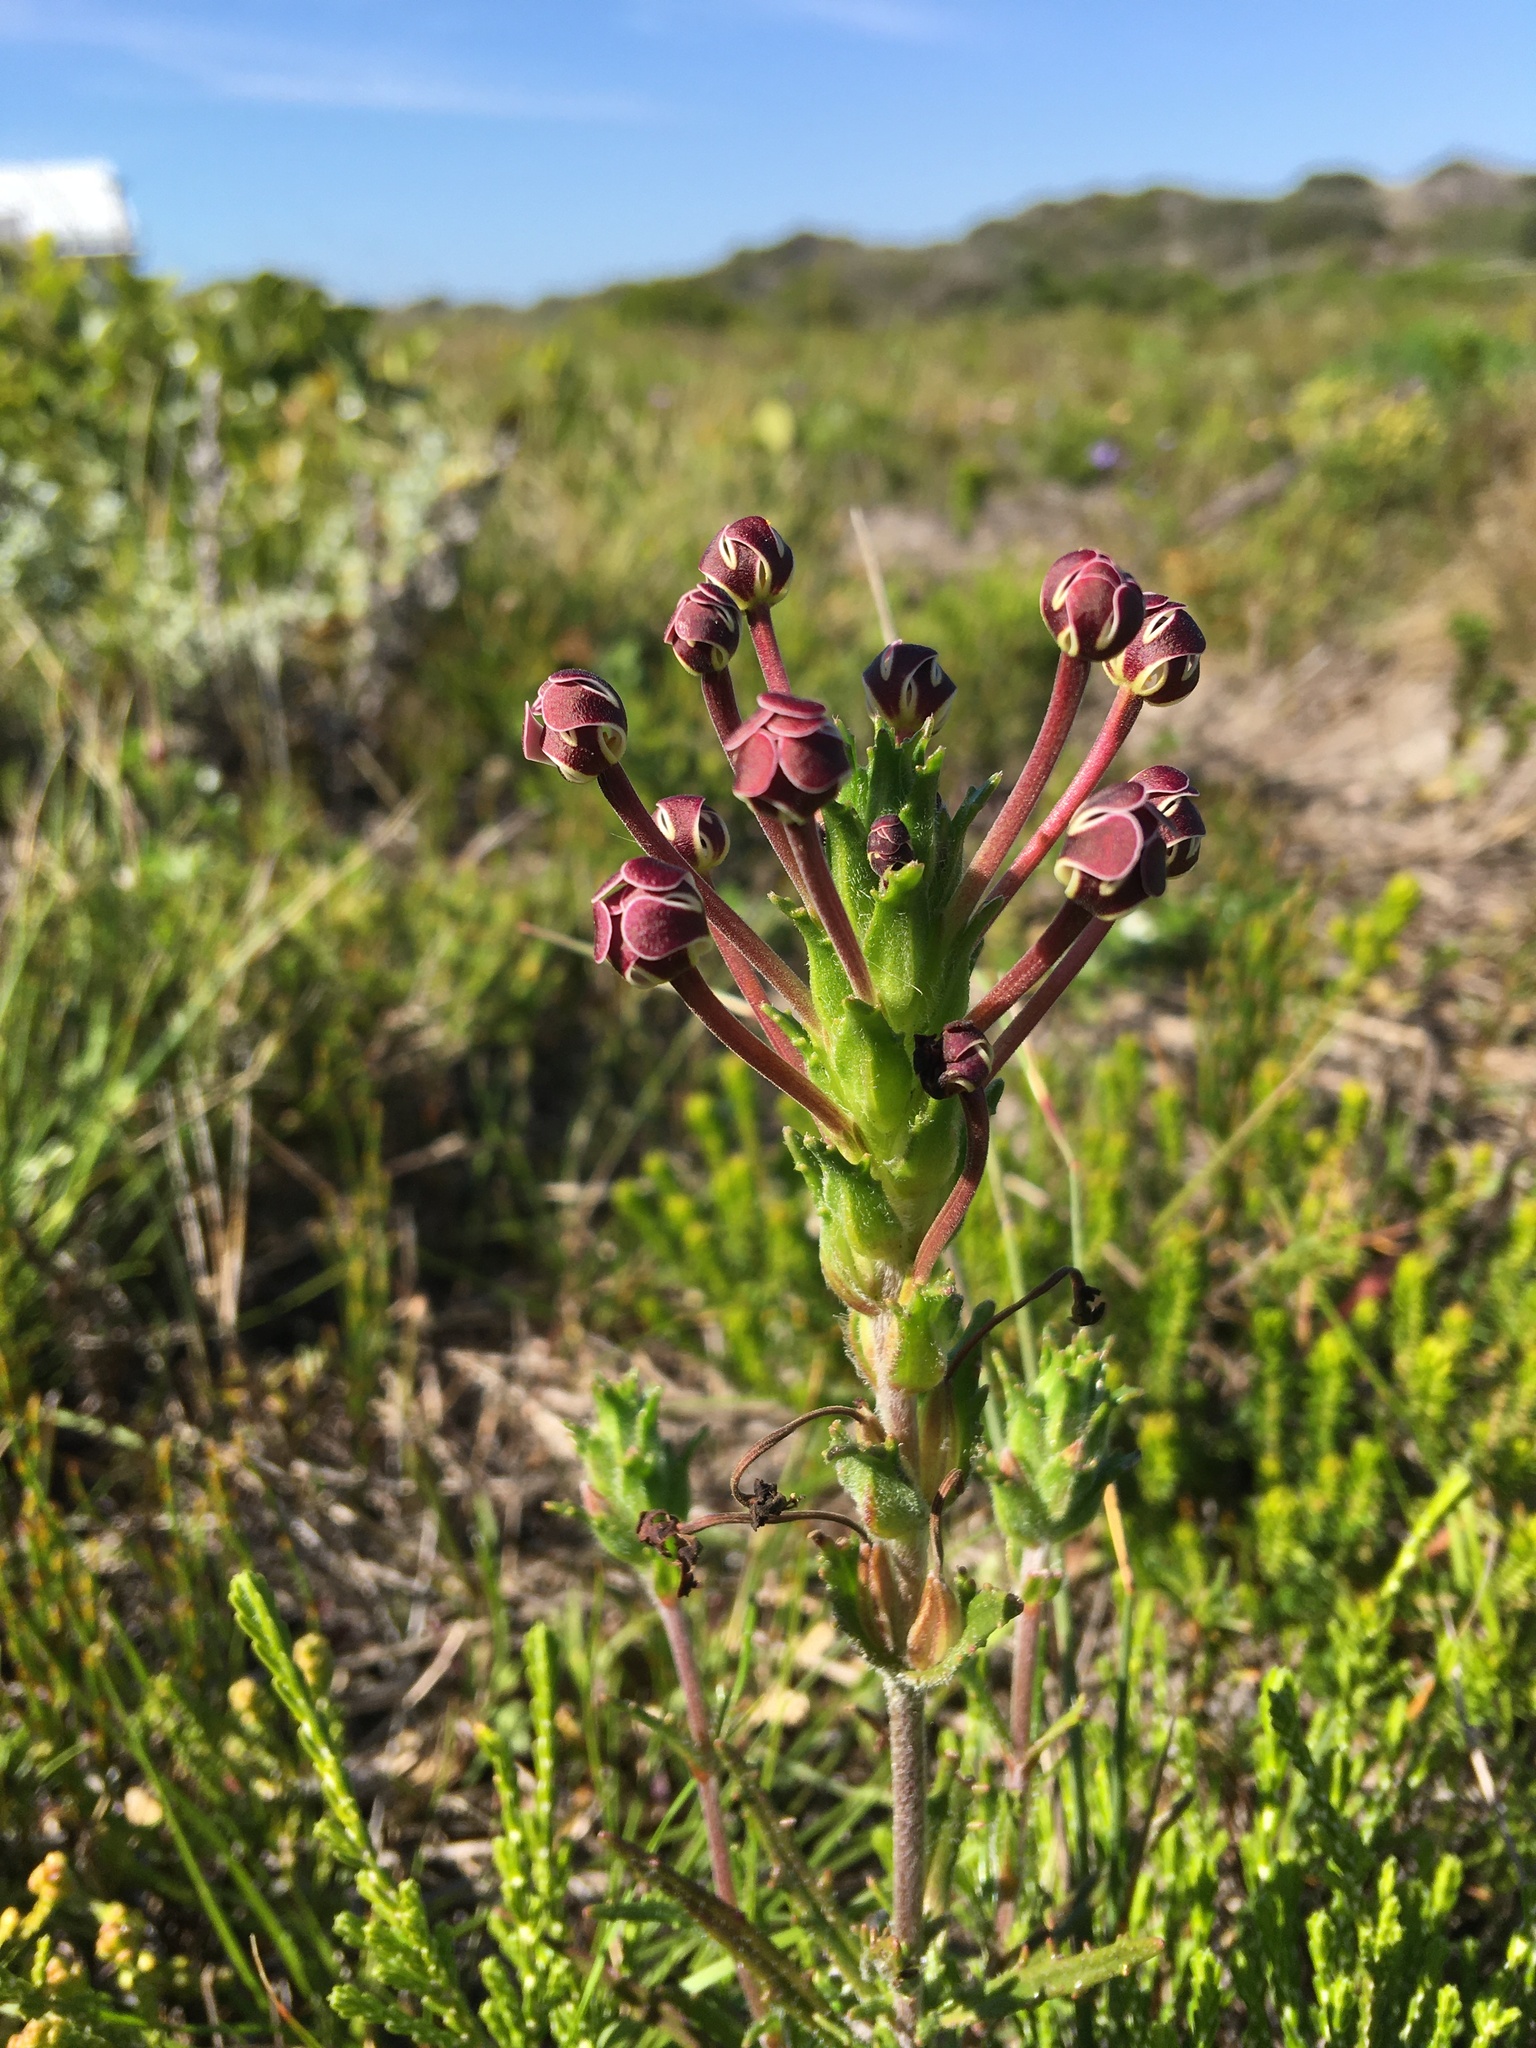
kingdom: Plantae
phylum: Tracheophyta
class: Magnoliopsida
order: Lamiales
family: Scrophulariaceae
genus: Zaluzianskya
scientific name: Zaluzianskya capensis
